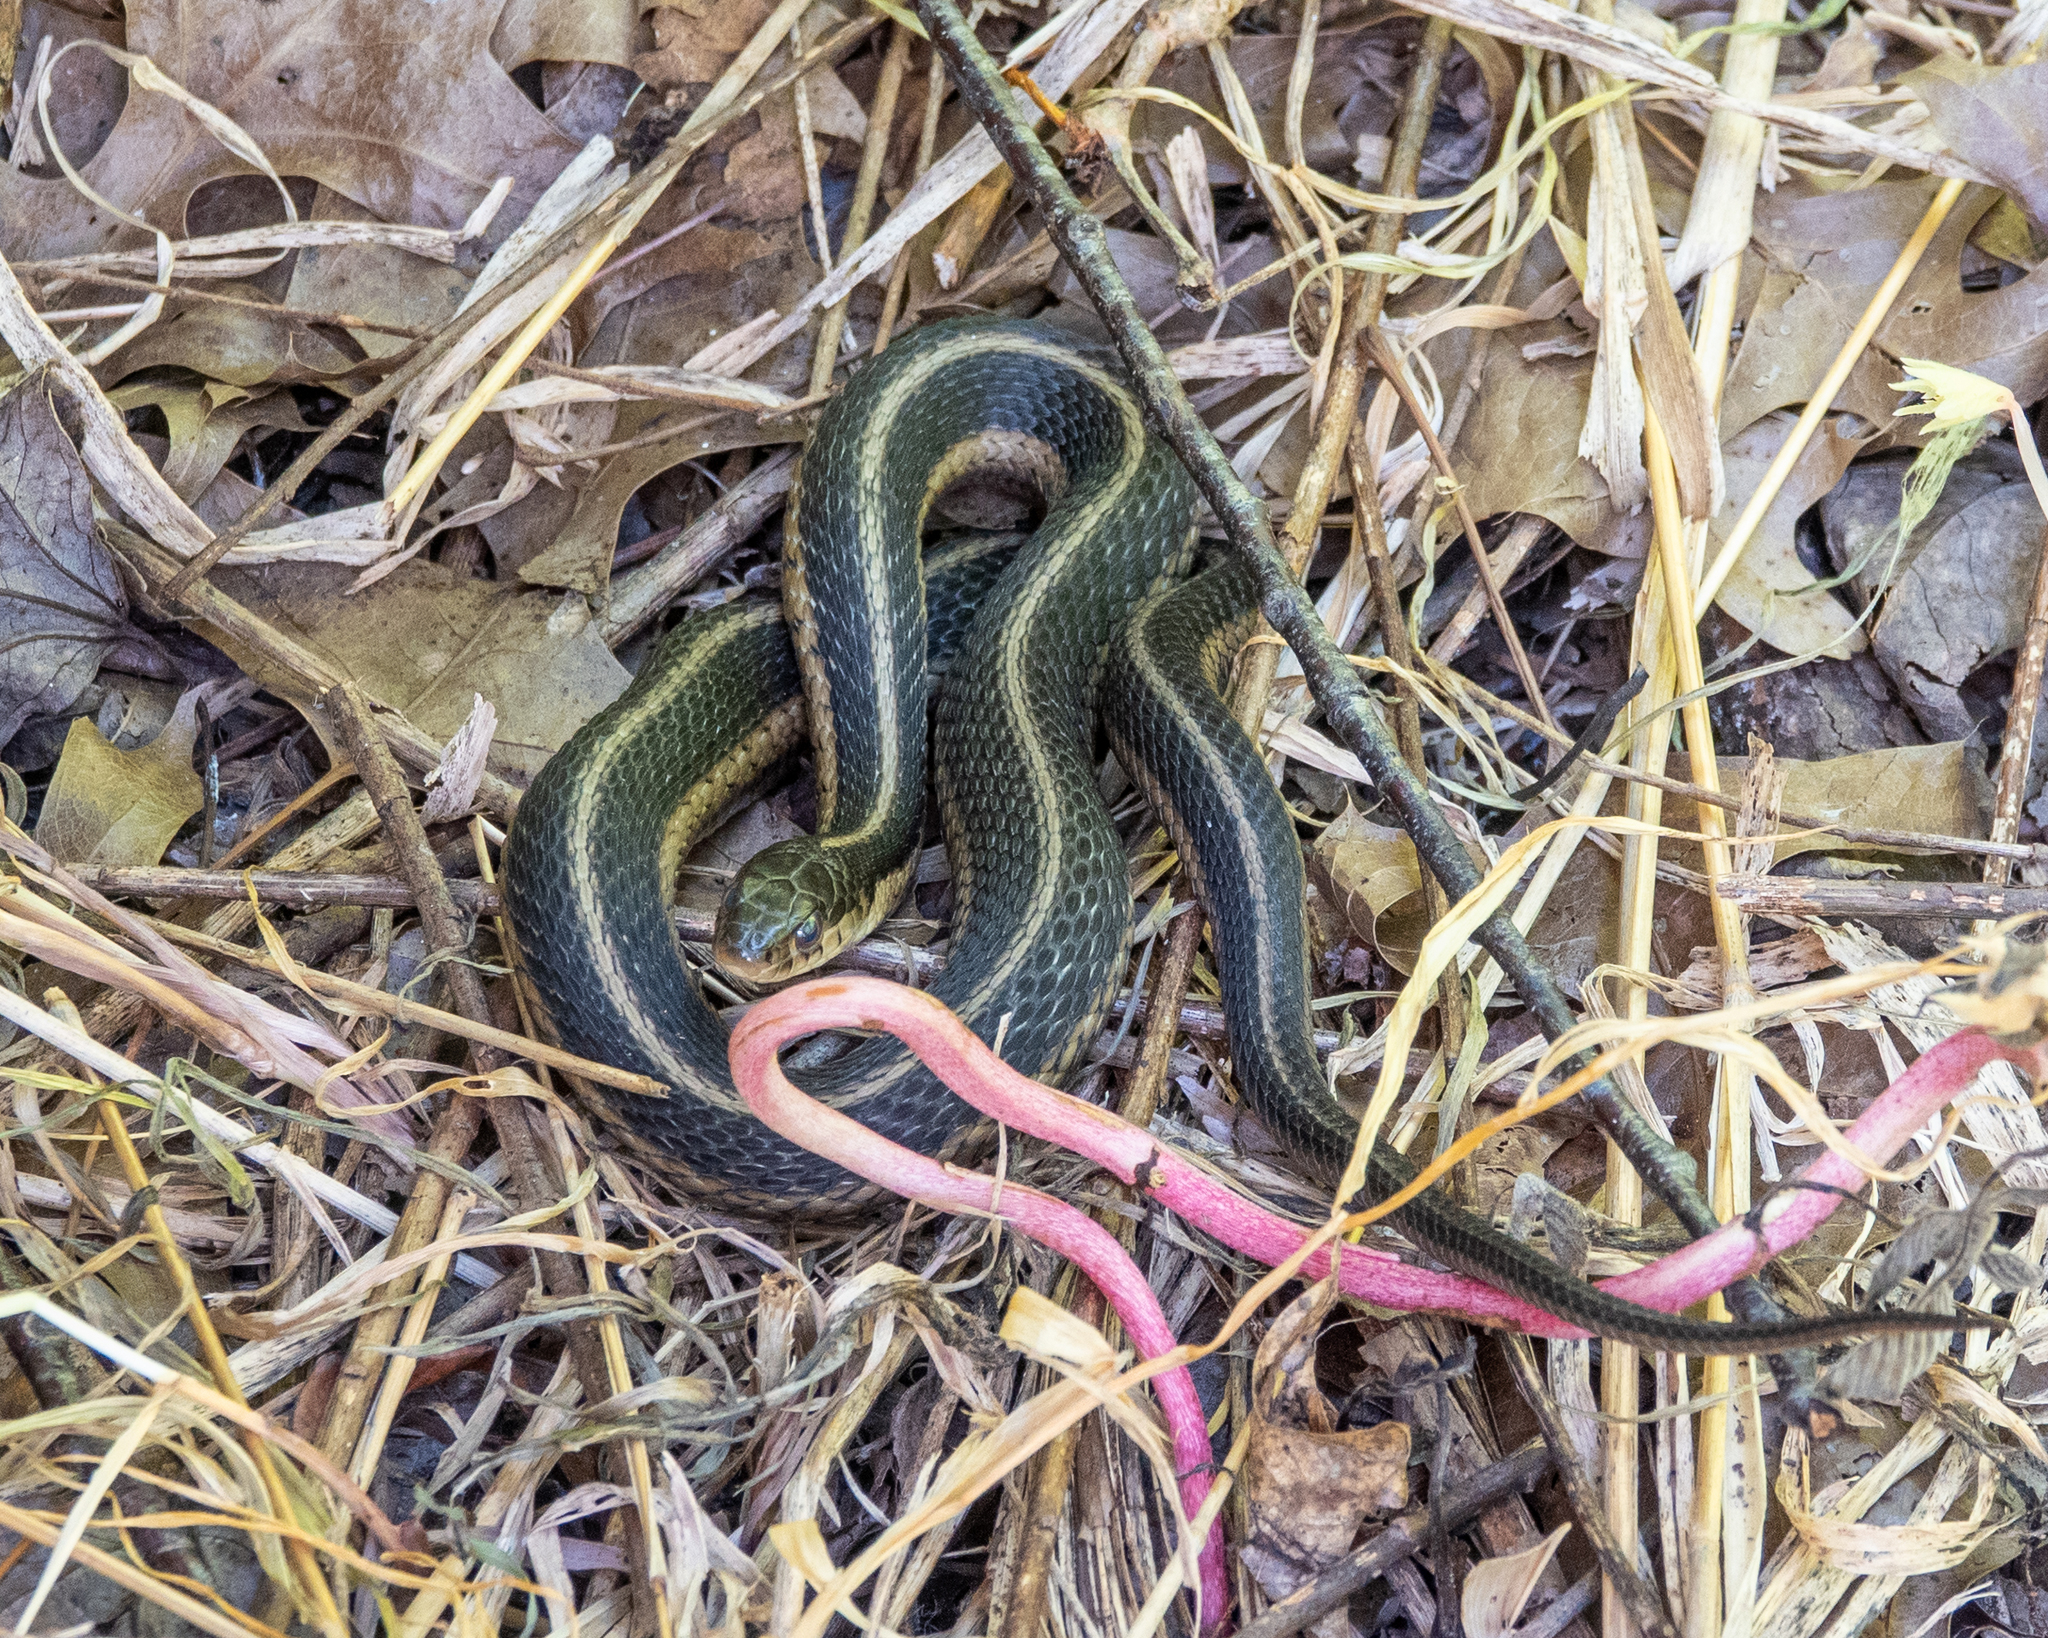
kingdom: Animalia
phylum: Chordata
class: Squamata
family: Colubridae
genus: Thamnophis
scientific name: Thamnophis sirtalis
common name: Common garter snake
